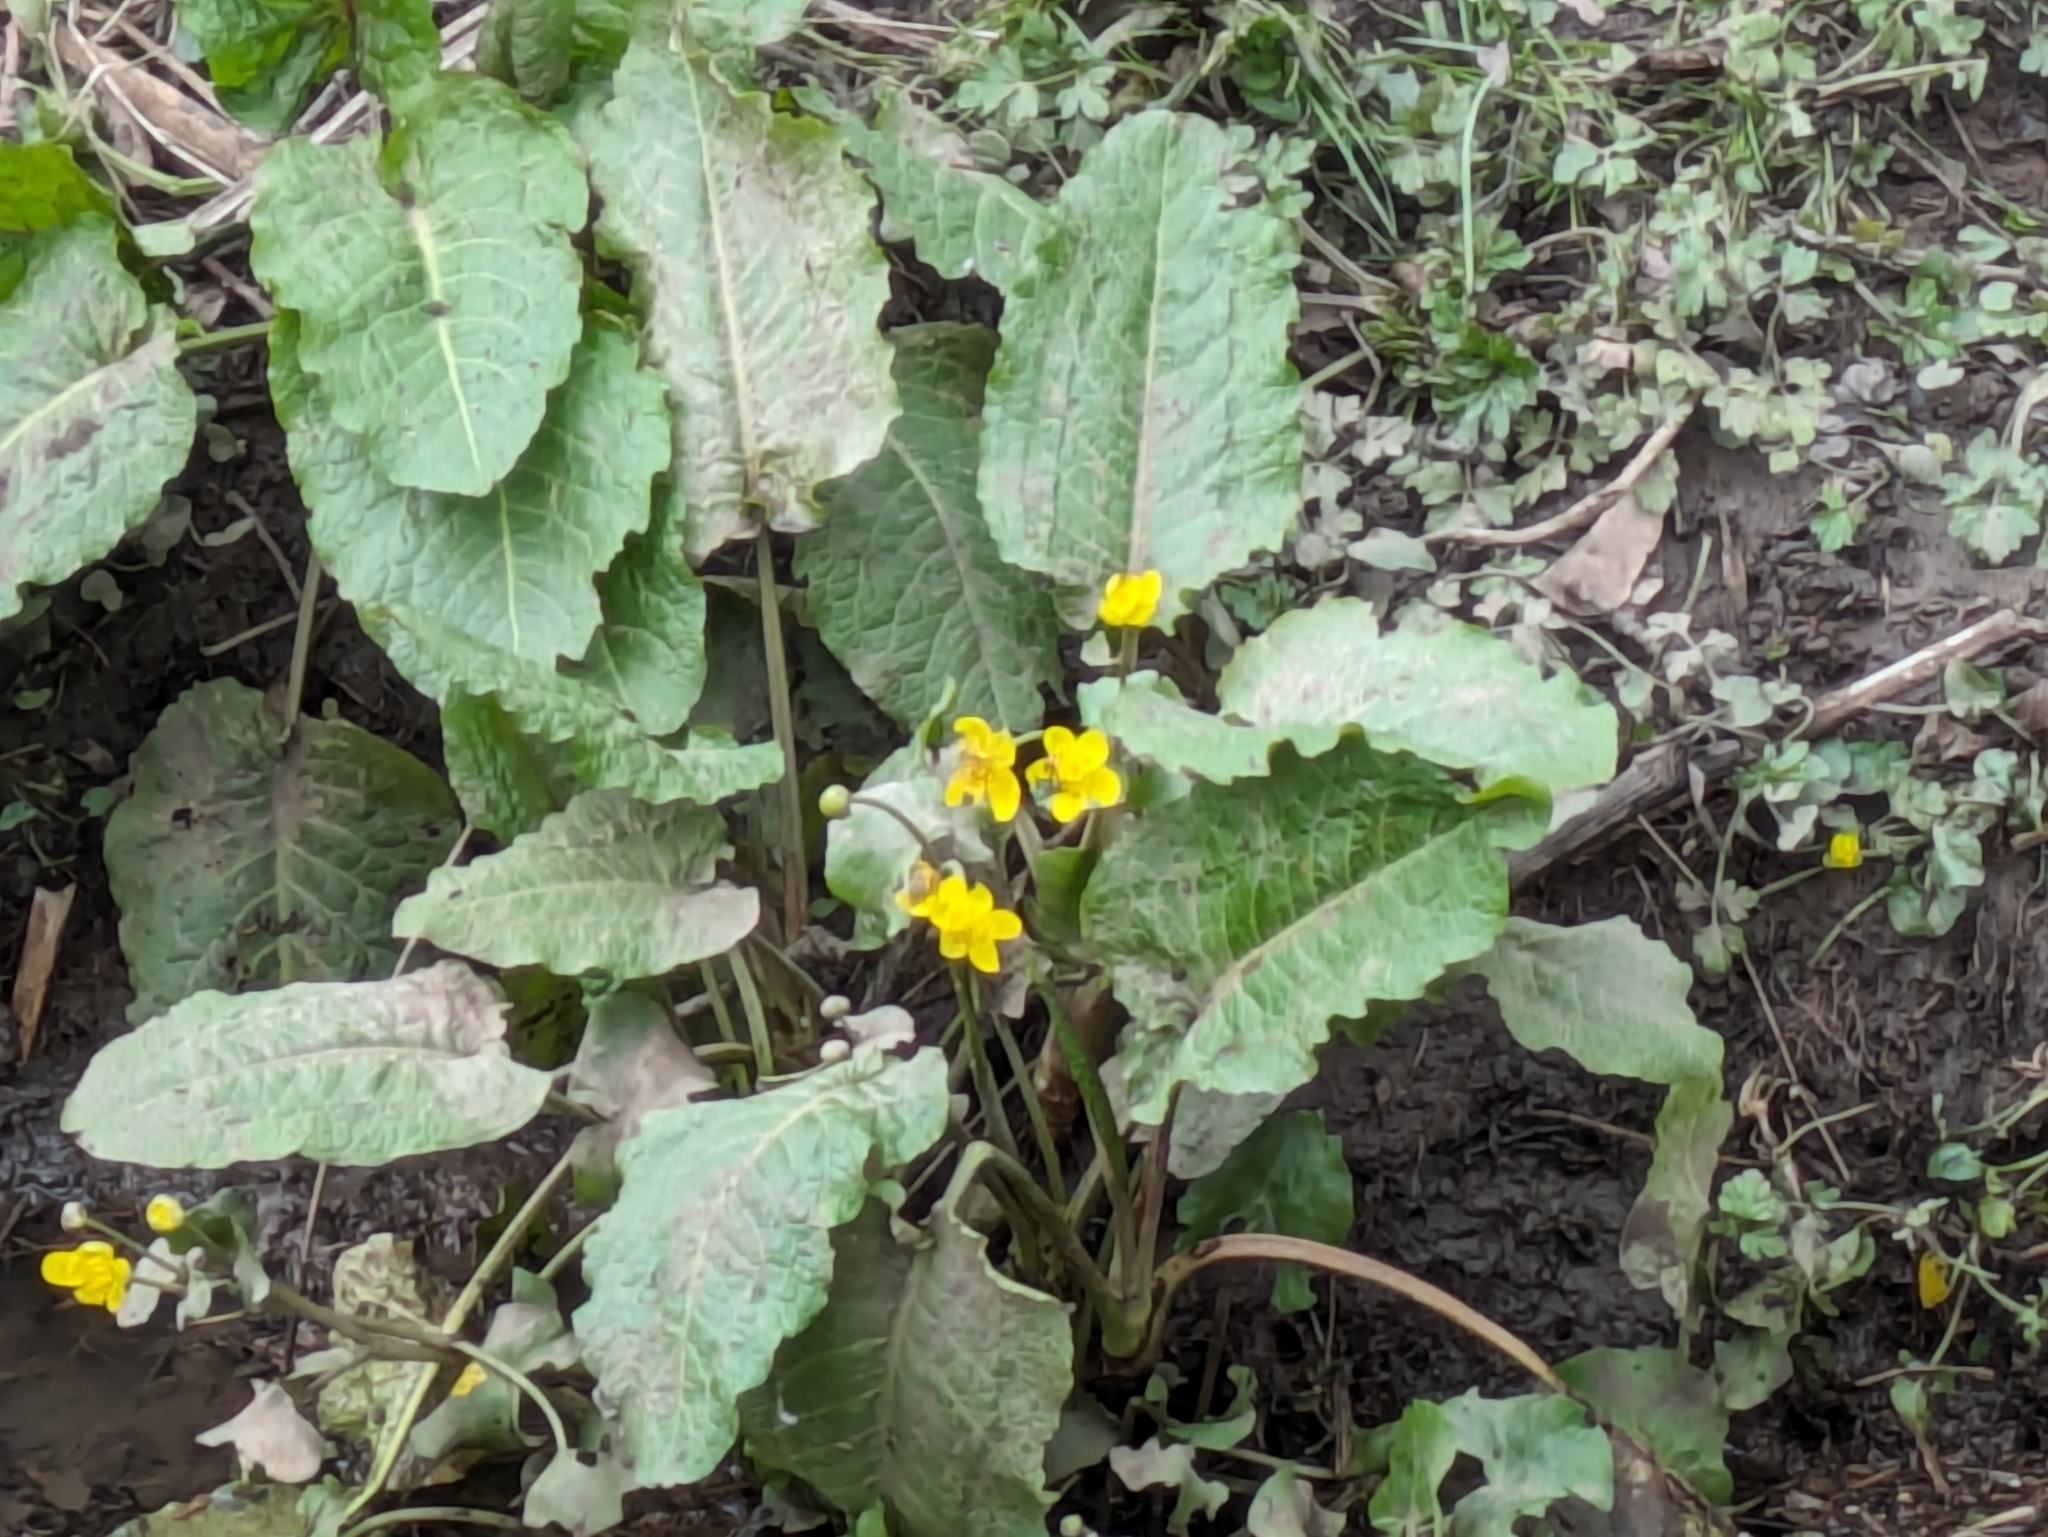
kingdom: Plantae
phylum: Tracheophyta
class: Magnoliopsida
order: Ranunculales
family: Ranunculaceae
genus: Caltha
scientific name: Caltha palustris
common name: Marsh marigold
